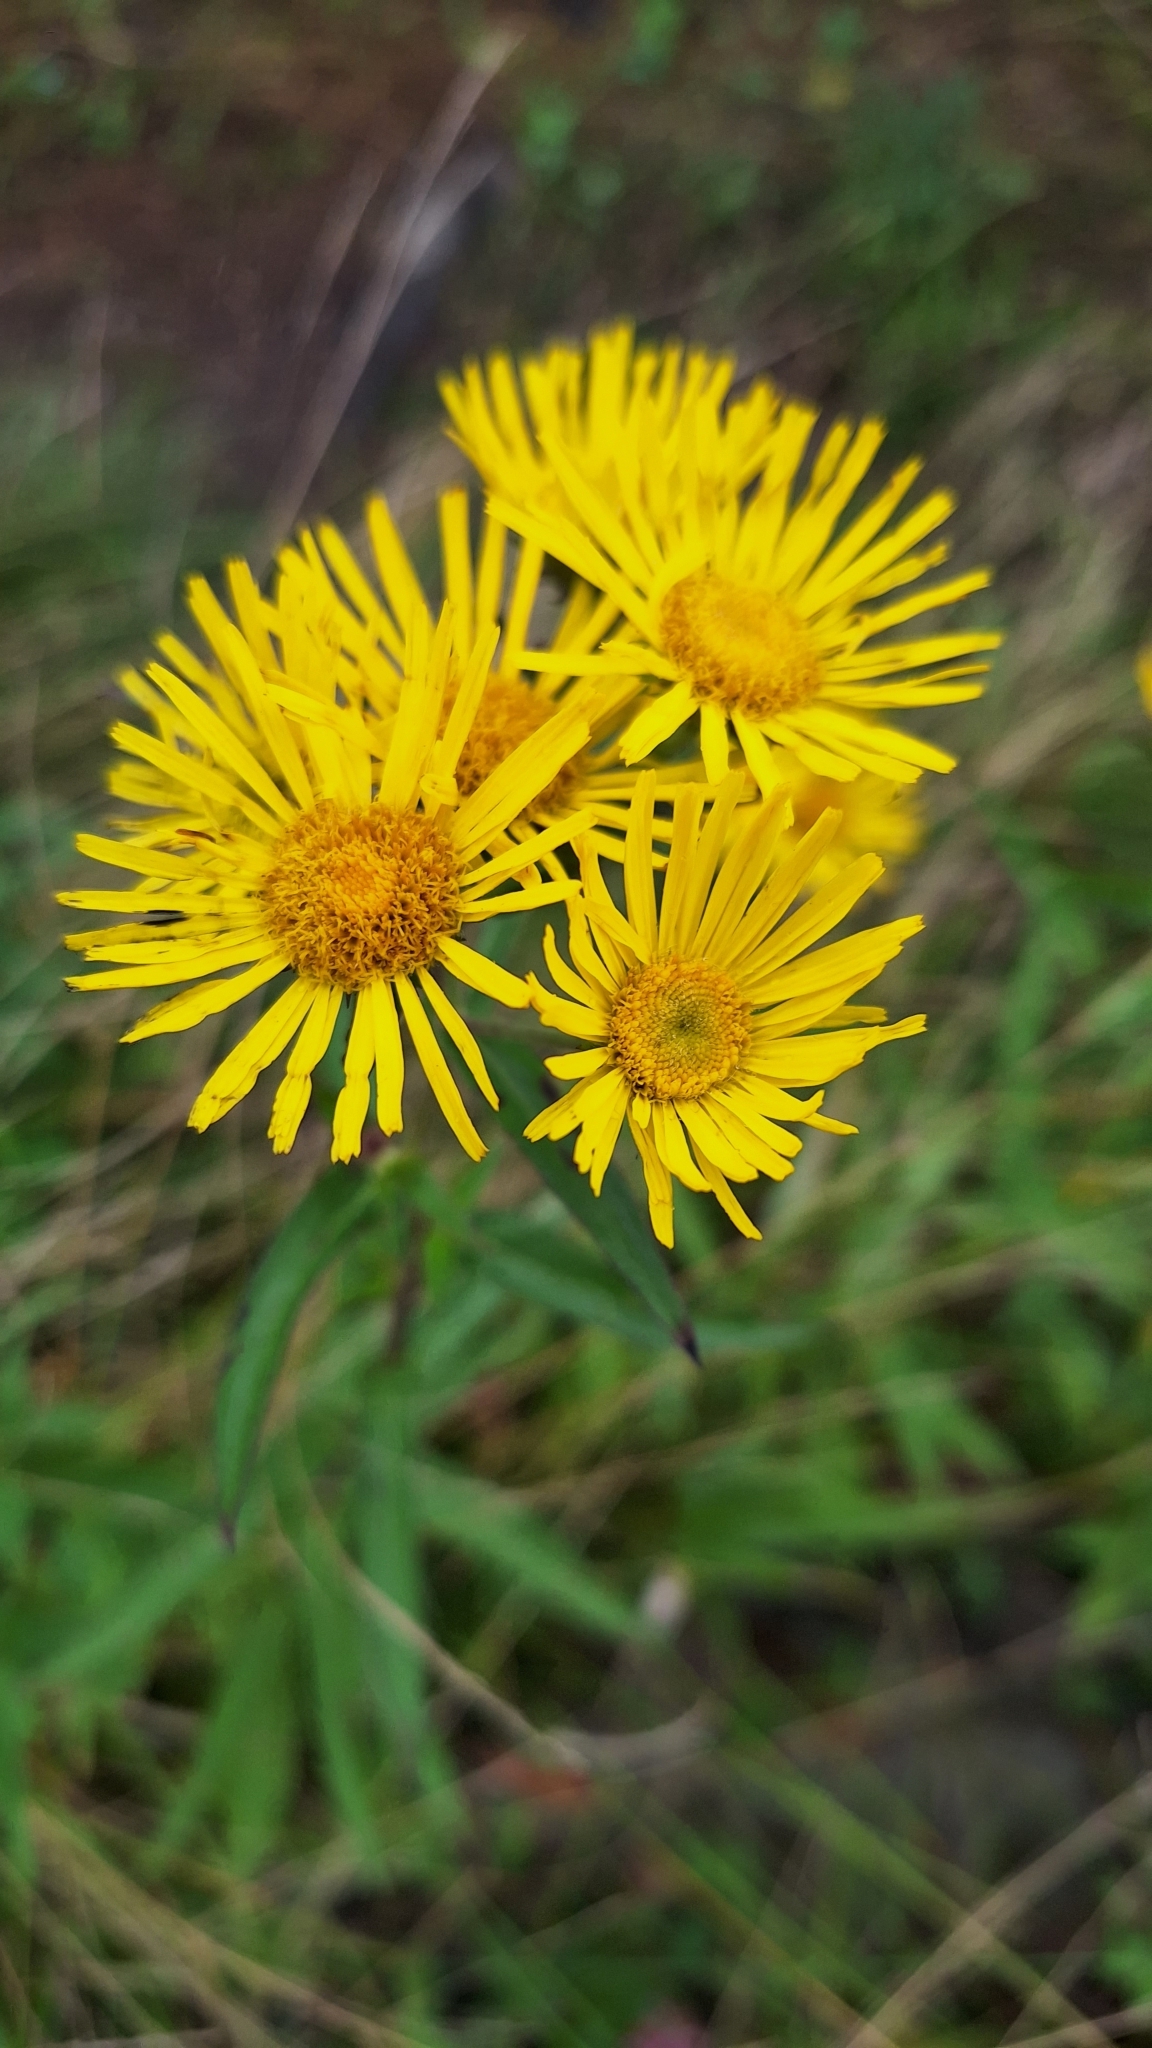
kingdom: Plantae
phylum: Tracheophyta
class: Magnoliopsida
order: Asterales
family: Asteraceae
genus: Inula
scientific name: Inula japonica
